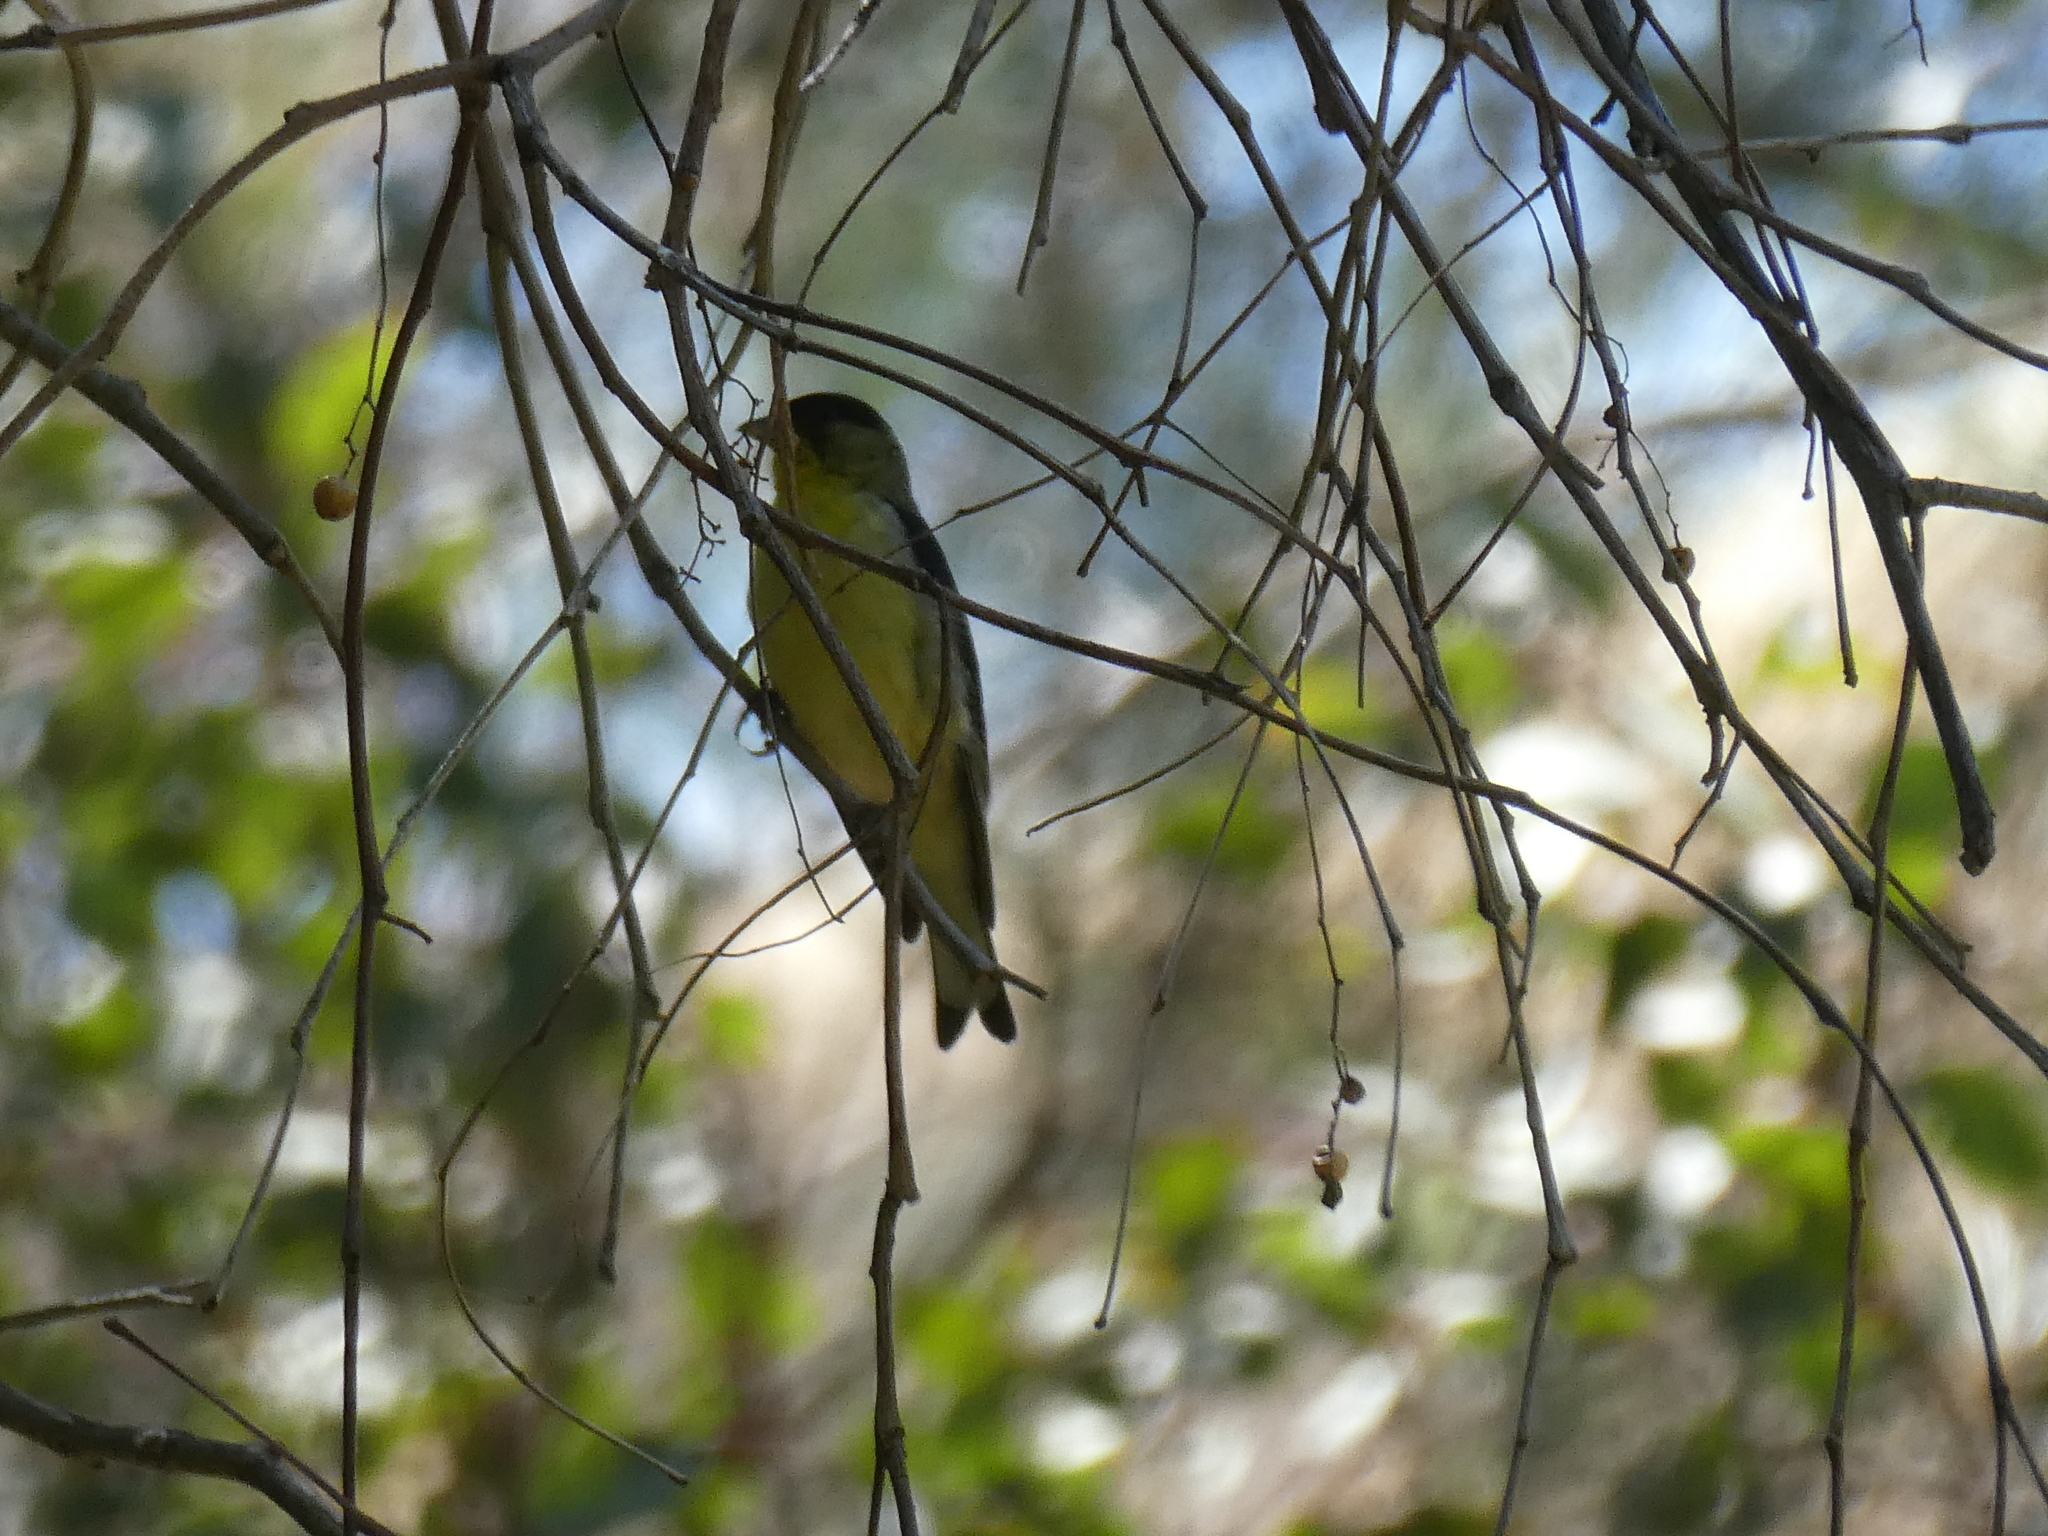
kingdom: Animalia
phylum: Chordata
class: Aves
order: Passeriformes
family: Fringillidae
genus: Spinus
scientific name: Spinus psaltria
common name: Lesser goldfinch
